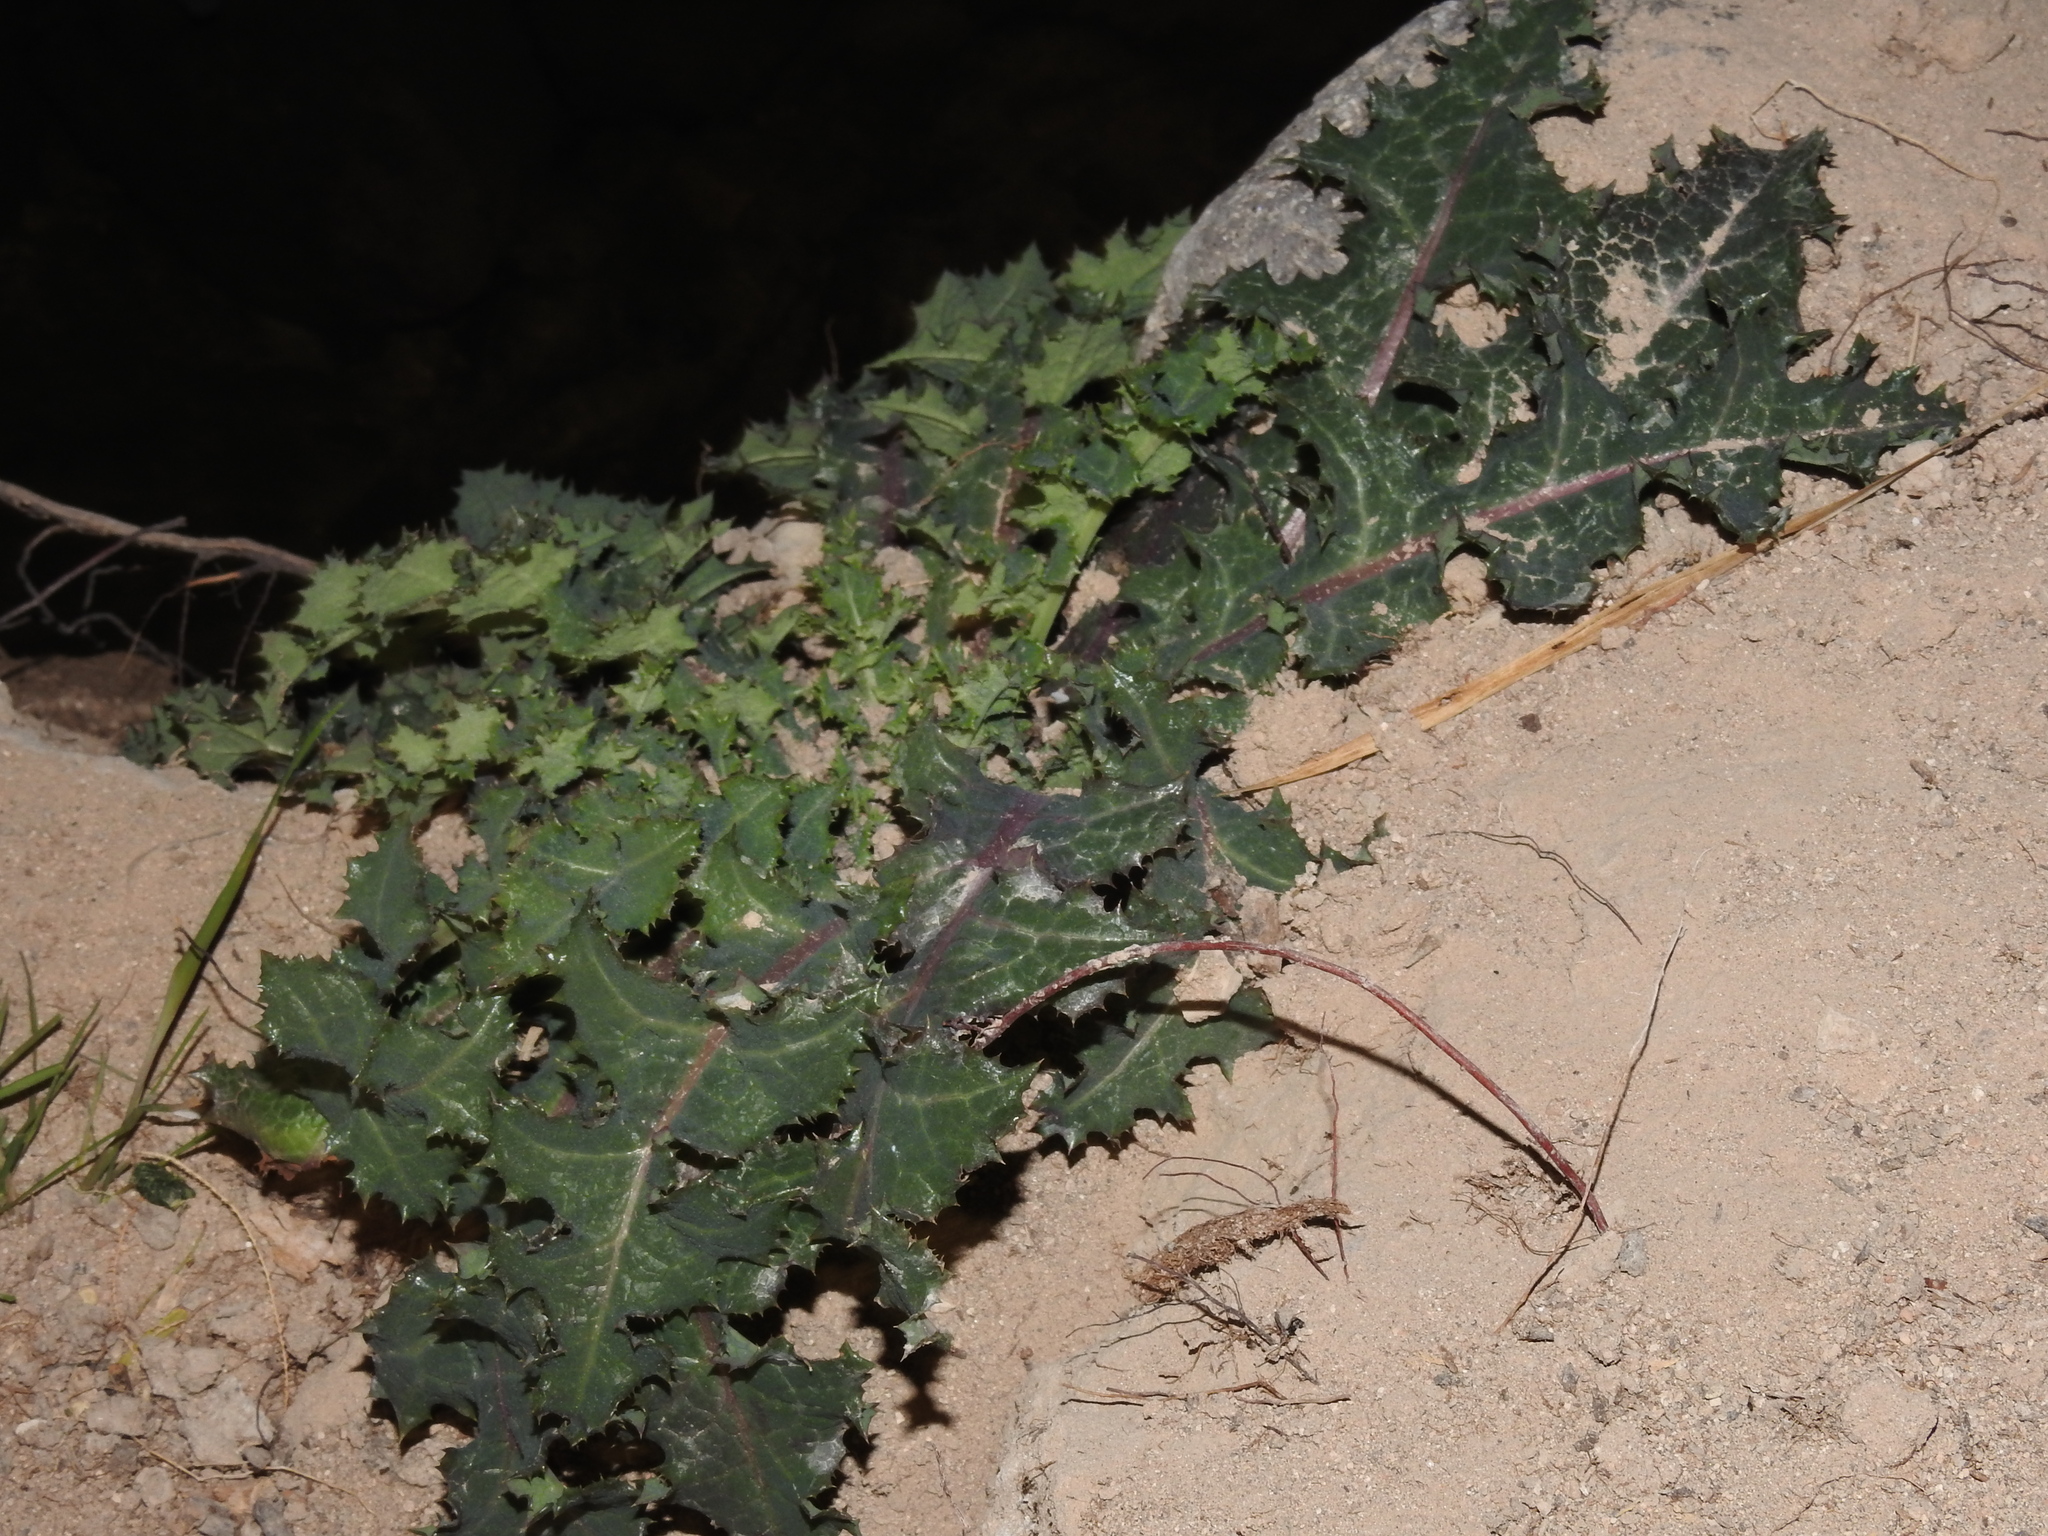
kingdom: Plantae
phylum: Tracheophyta
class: Magnoliopsida
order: Asterales
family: Asteraceae
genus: Sonchus
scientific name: Sonchus asper
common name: Prickly sow-thistle
